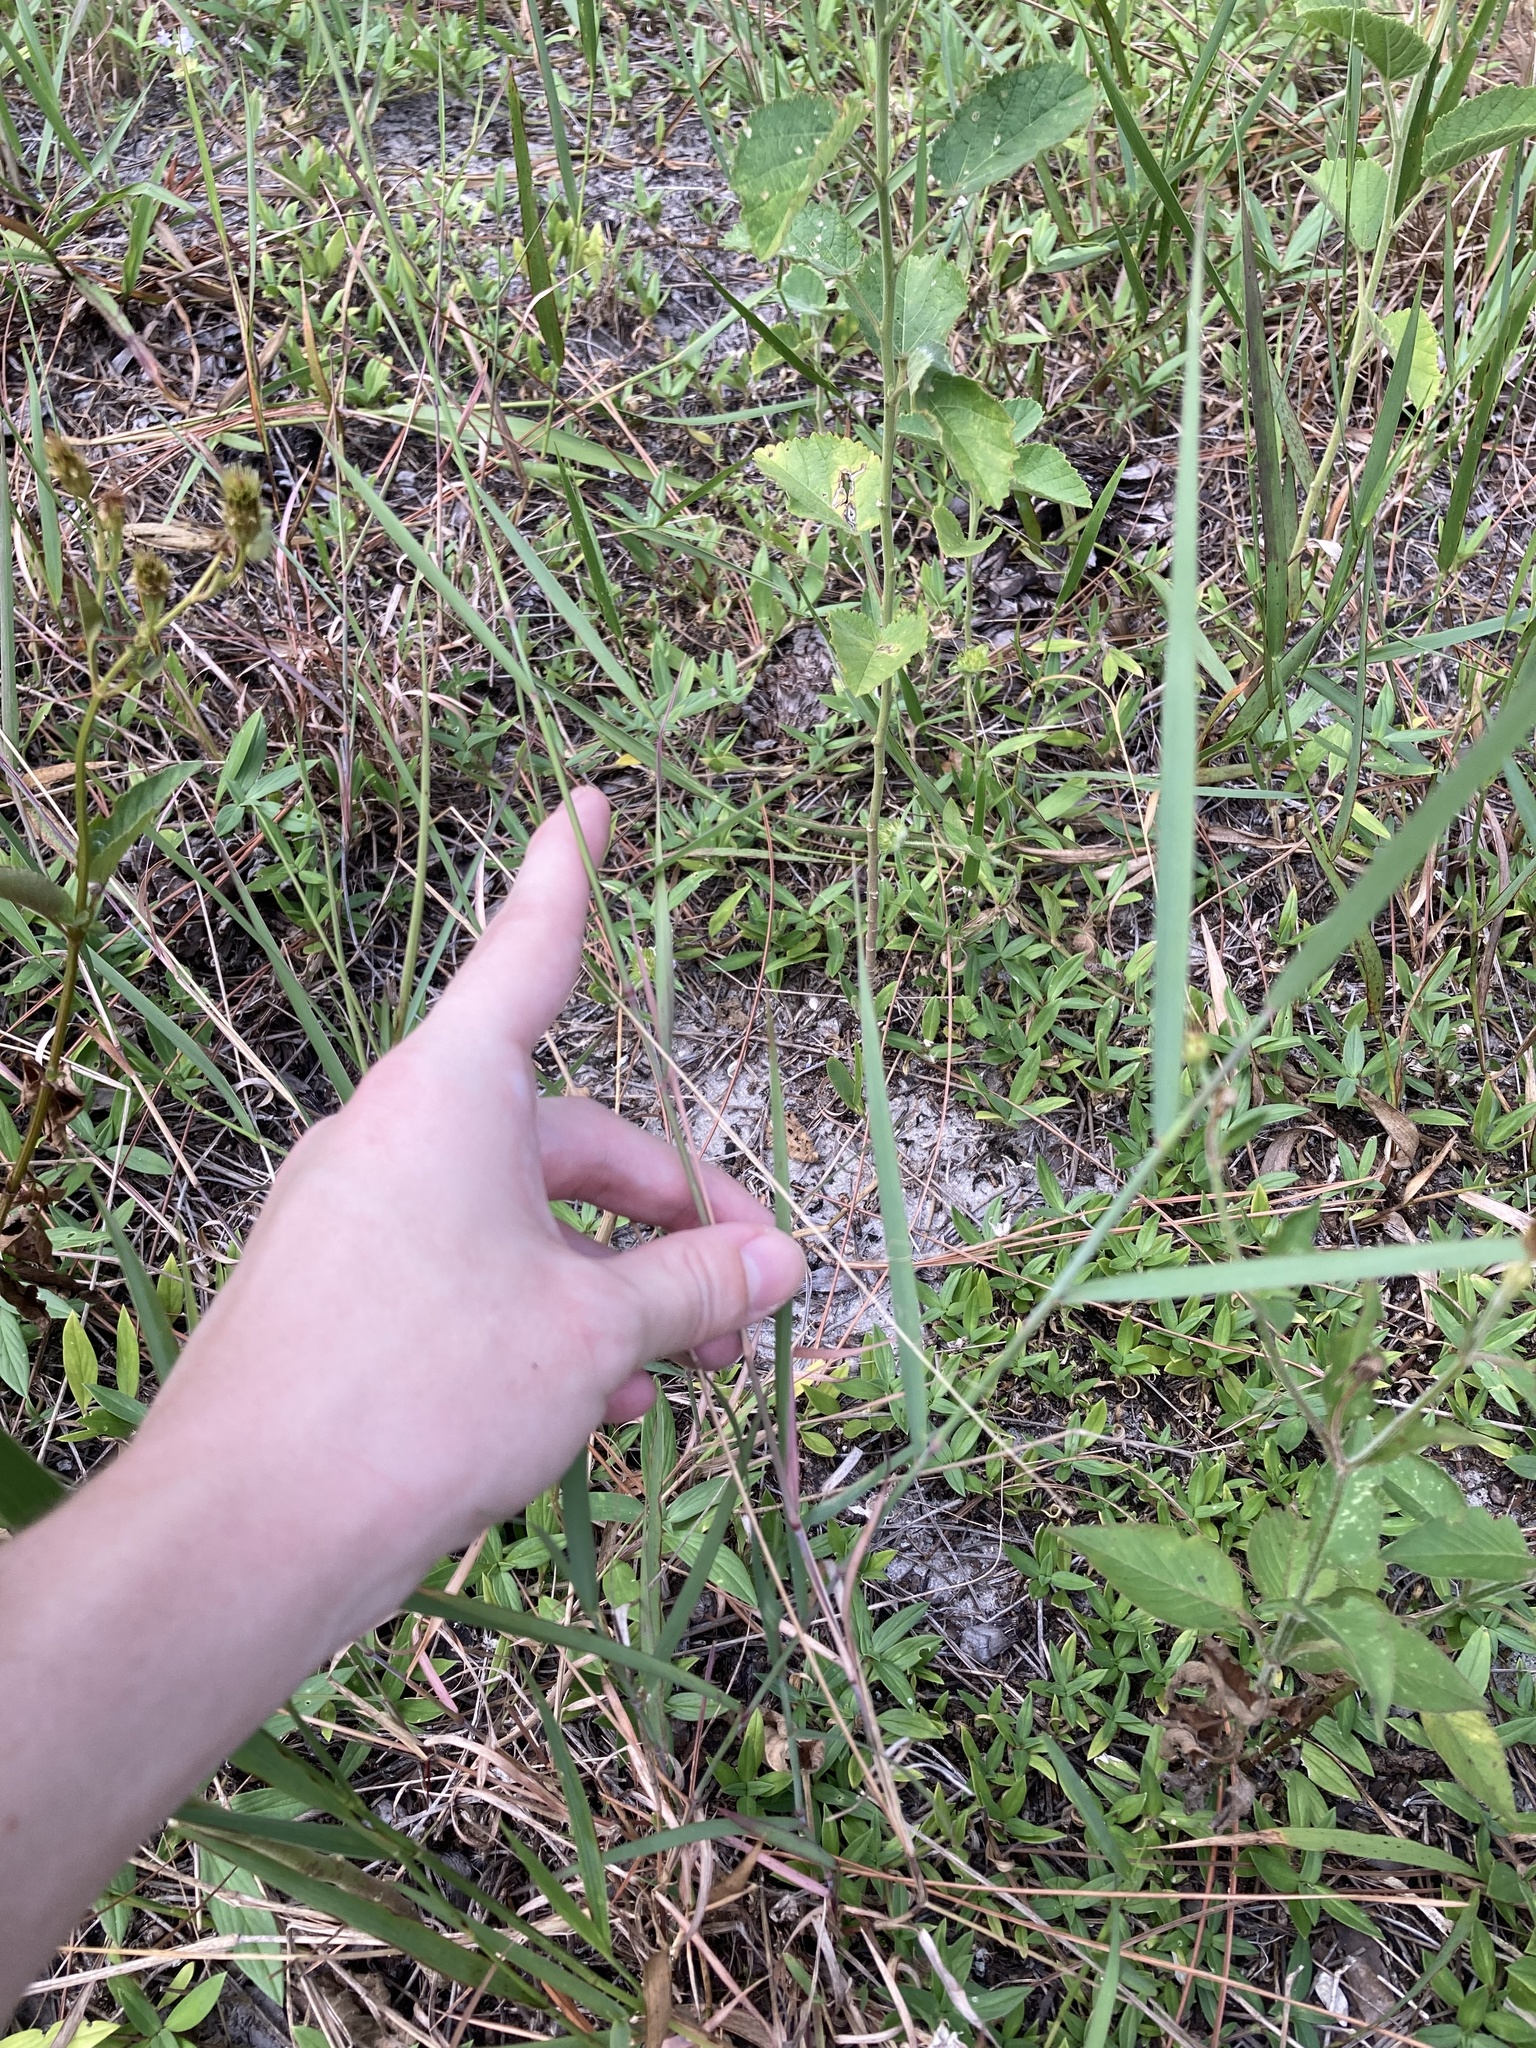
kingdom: Plantae
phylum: Tracheophyta
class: Liliopsida
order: Poales
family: Poaceae
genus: Melinis
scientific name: Melinis repens
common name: Rose natal grass
